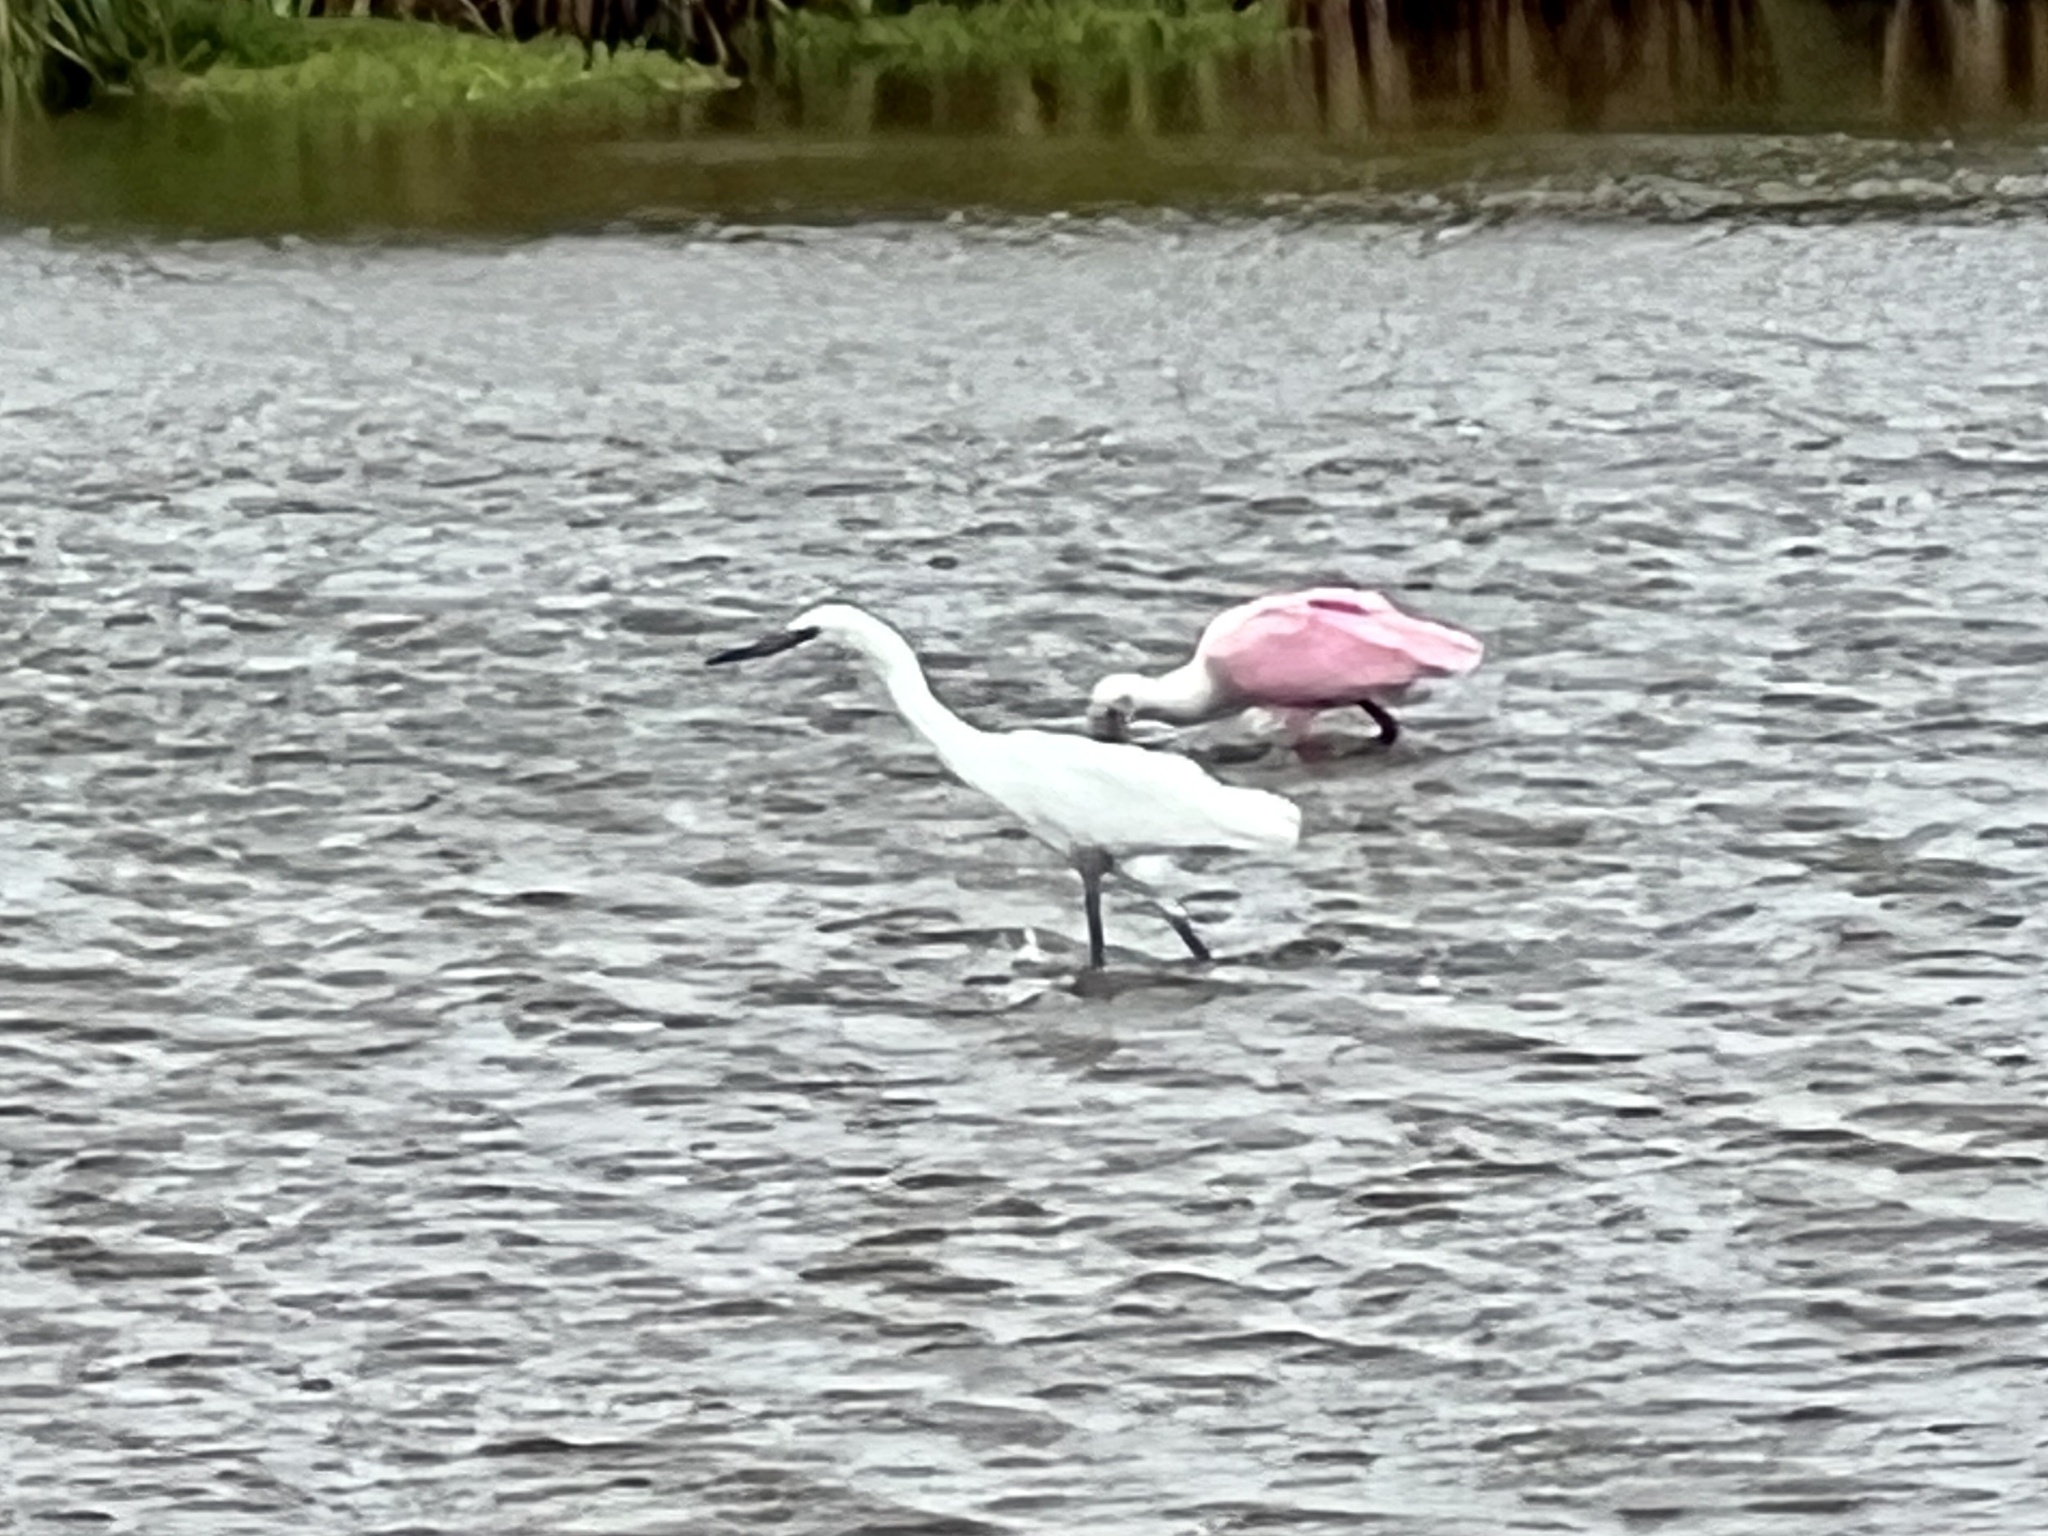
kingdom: Animalia
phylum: Chordata
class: Aves
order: Pelecaniformes
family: Ardeidae
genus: Egretta
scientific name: Egretta thula
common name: Snowy egret
